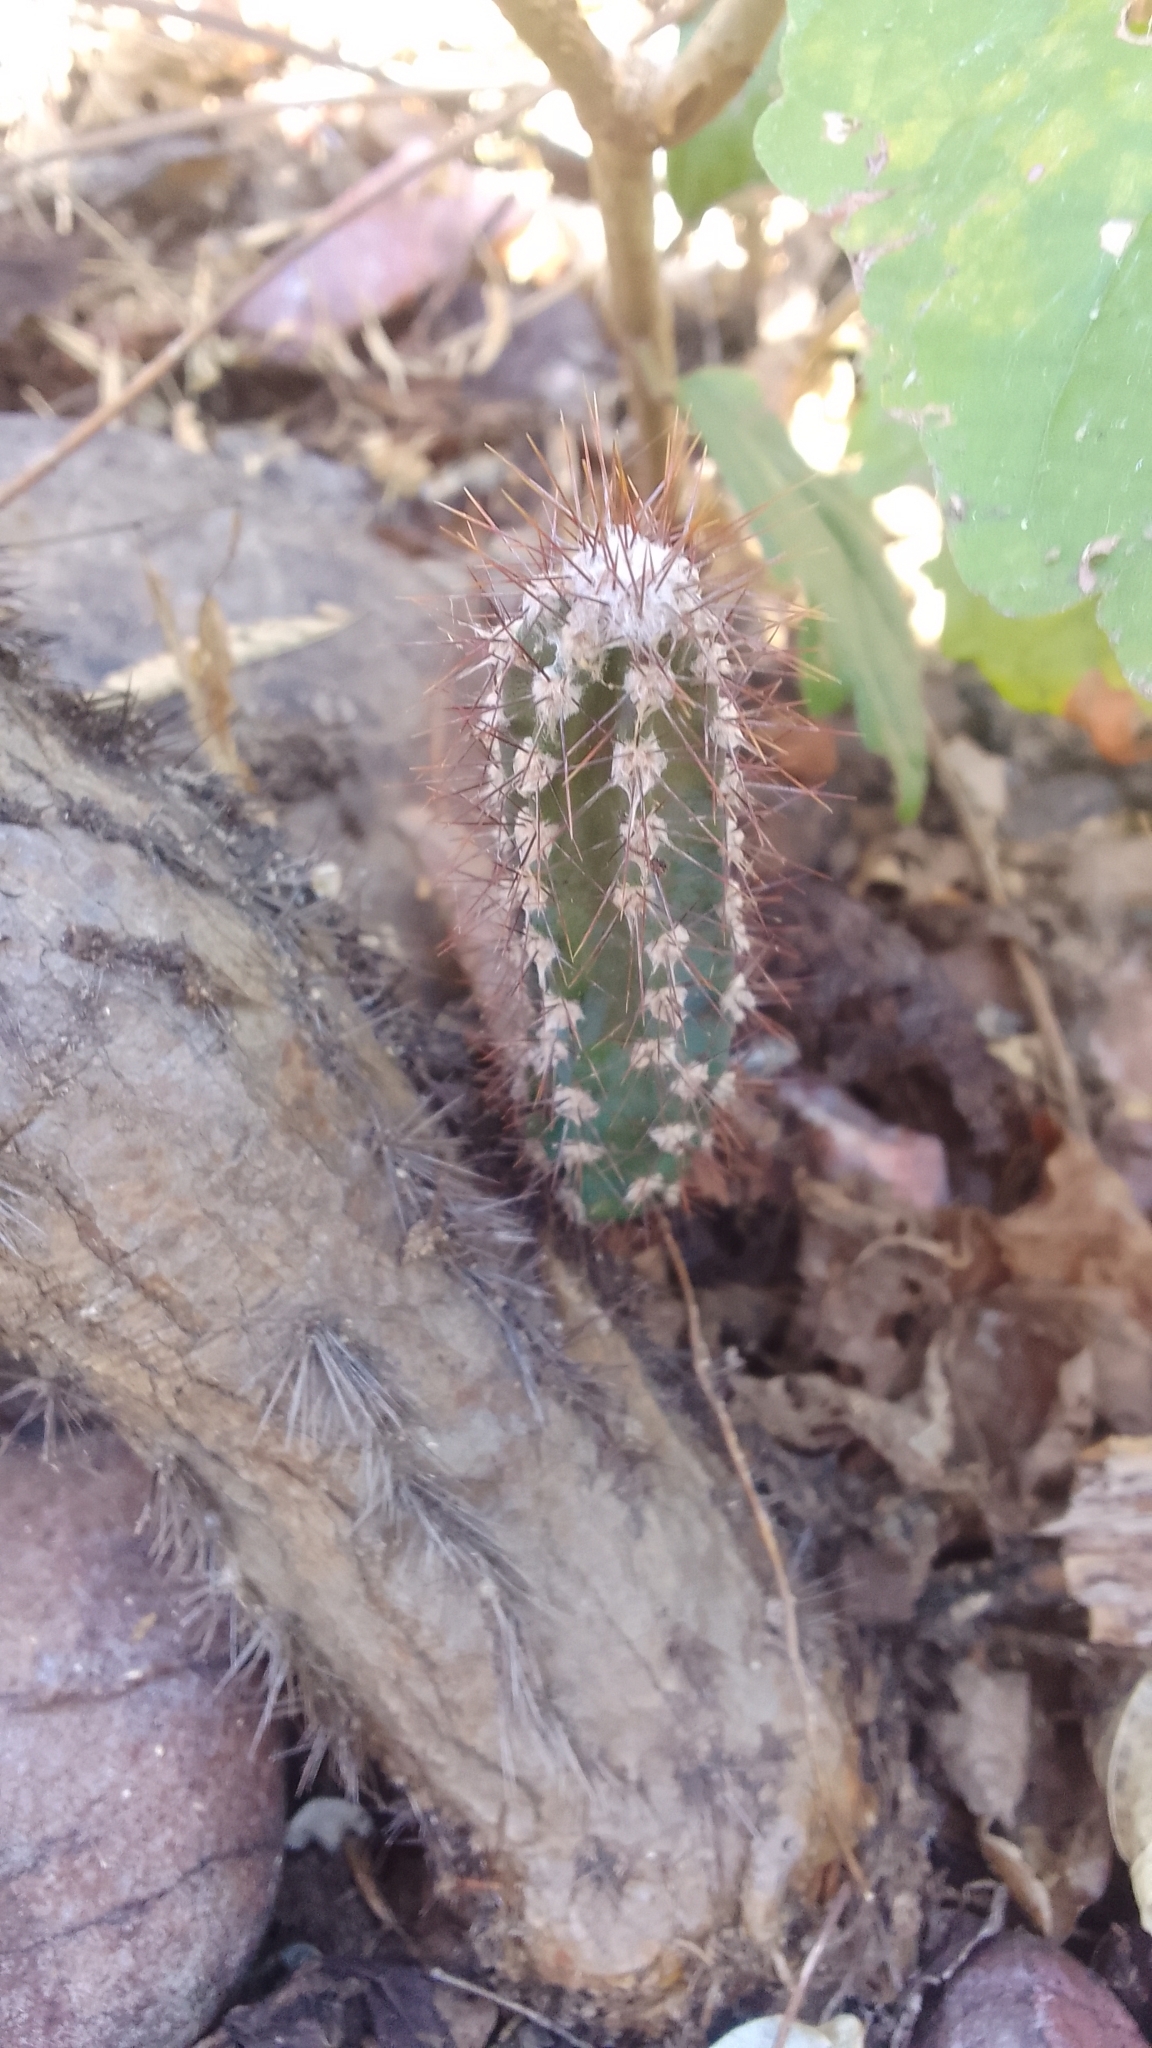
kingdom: Plantae
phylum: Tracheophyta
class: Magnoliopsida
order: Caryophyllales
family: Cactaceae
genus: Cereus
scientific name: Cereus jamacaru
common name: Queen-of-the-night
